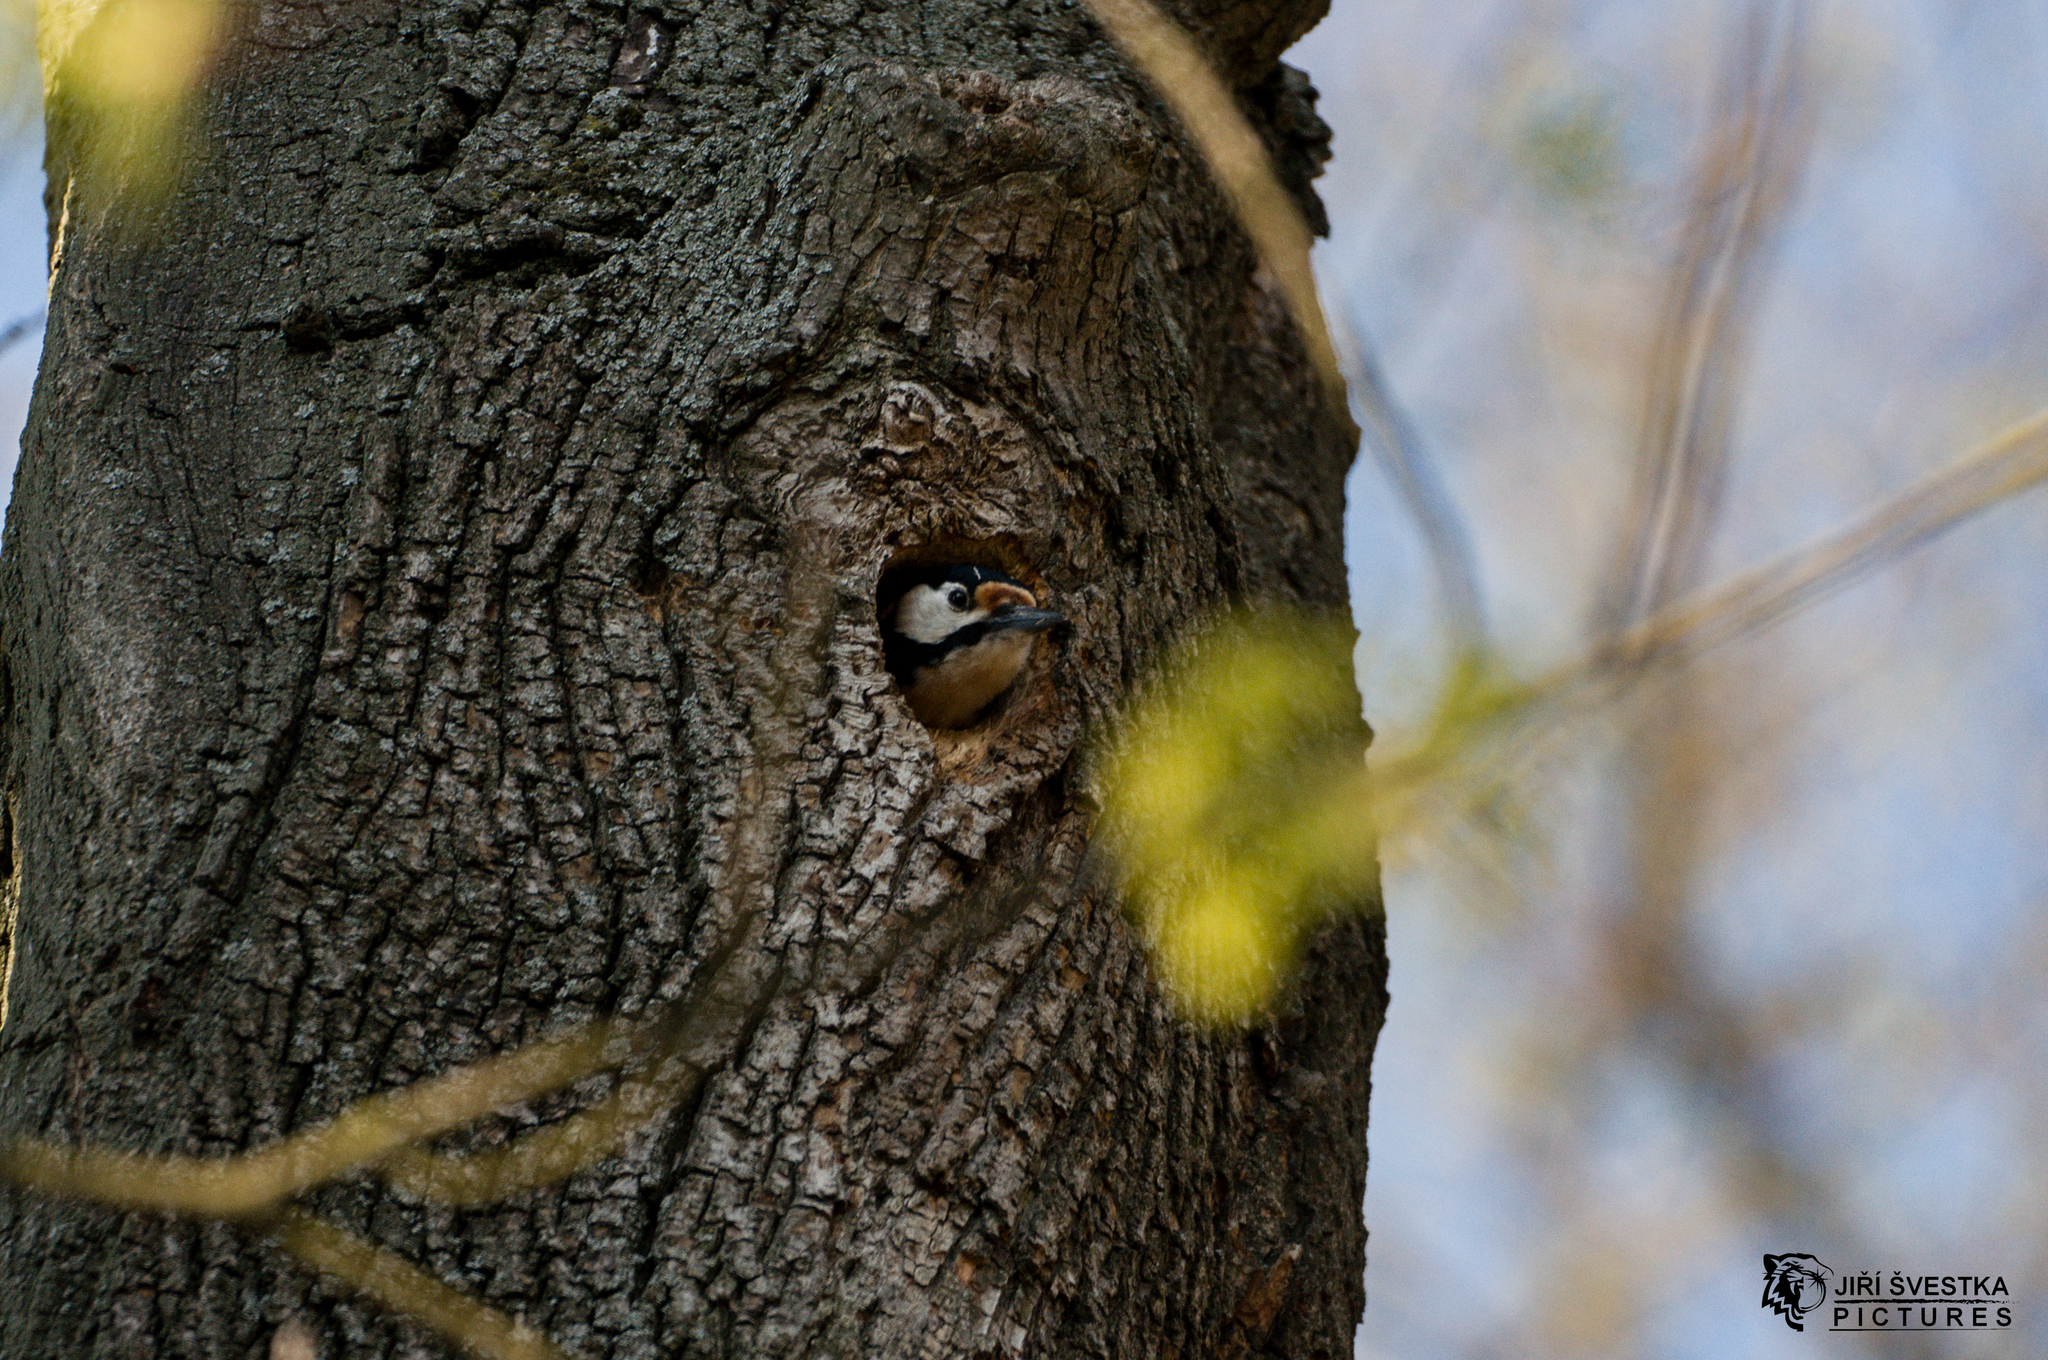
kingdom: Animalia
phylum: Chordata
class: Aves
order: Piciformes
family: Picidae
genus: Dendrocopos
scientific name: Dendrocopos major
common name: Great spotted woodpecker
